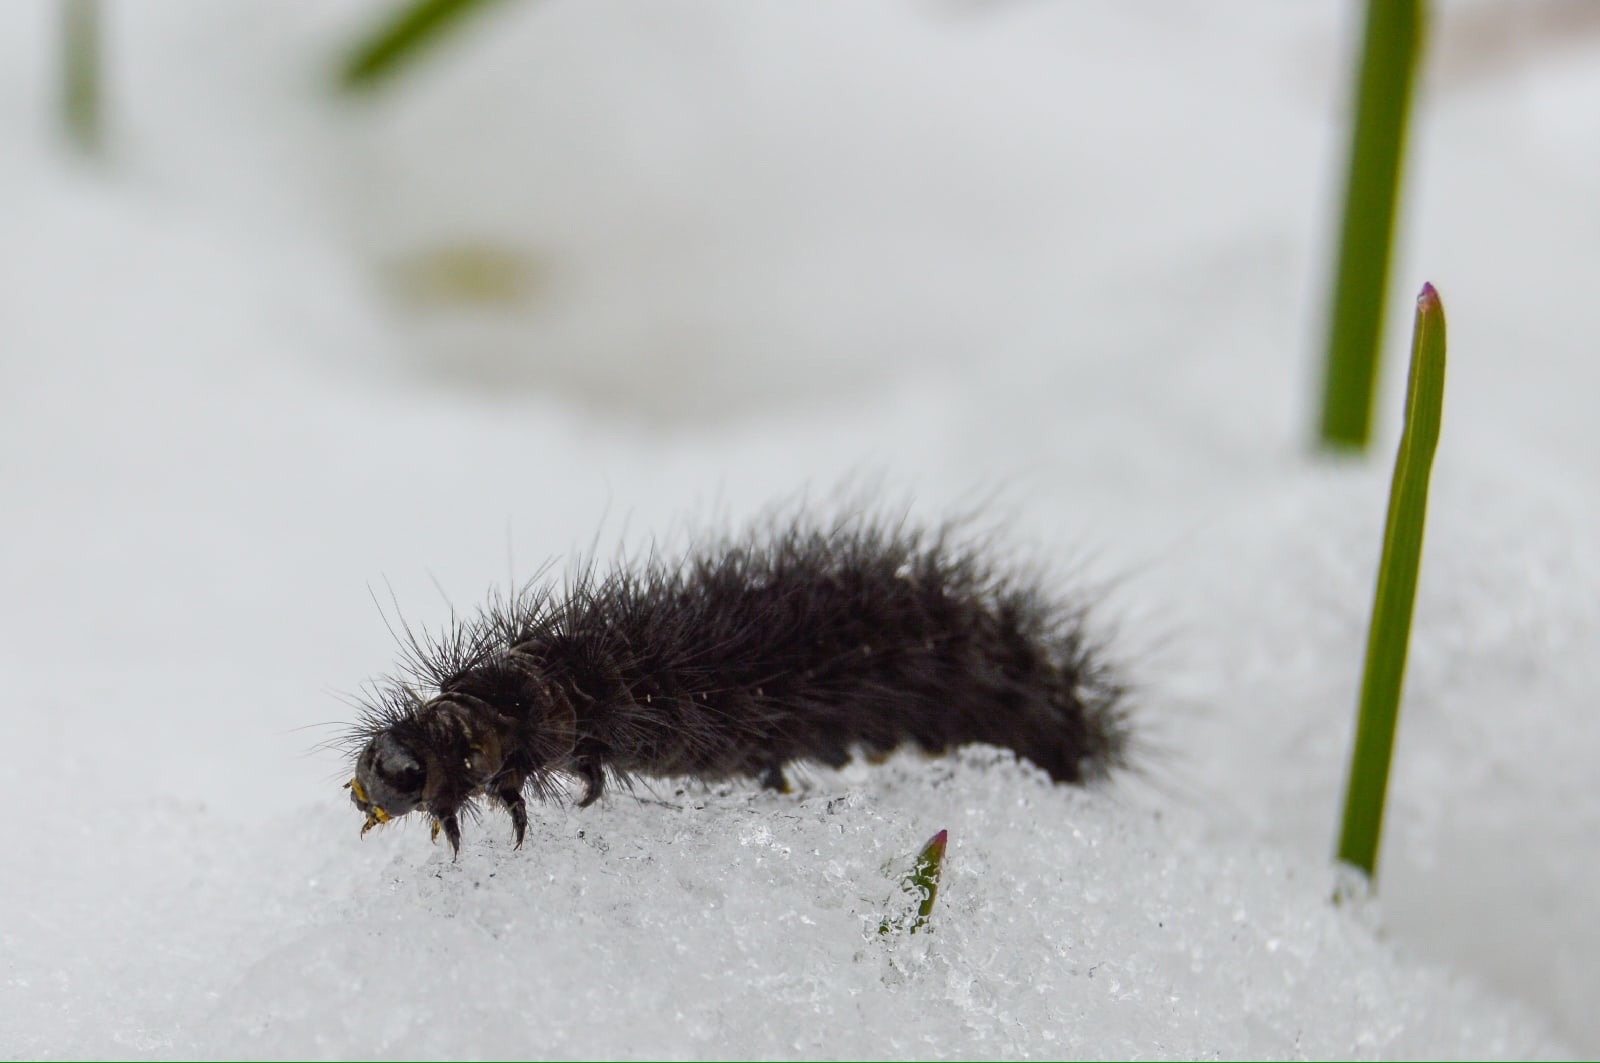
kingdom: Animalia
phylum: Arthropoda
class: Insecta
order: Lepidoptera
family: Erebidae
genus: Phragmatobia
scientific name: Phragmatobia fuliginosa
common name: Ruby tiger
